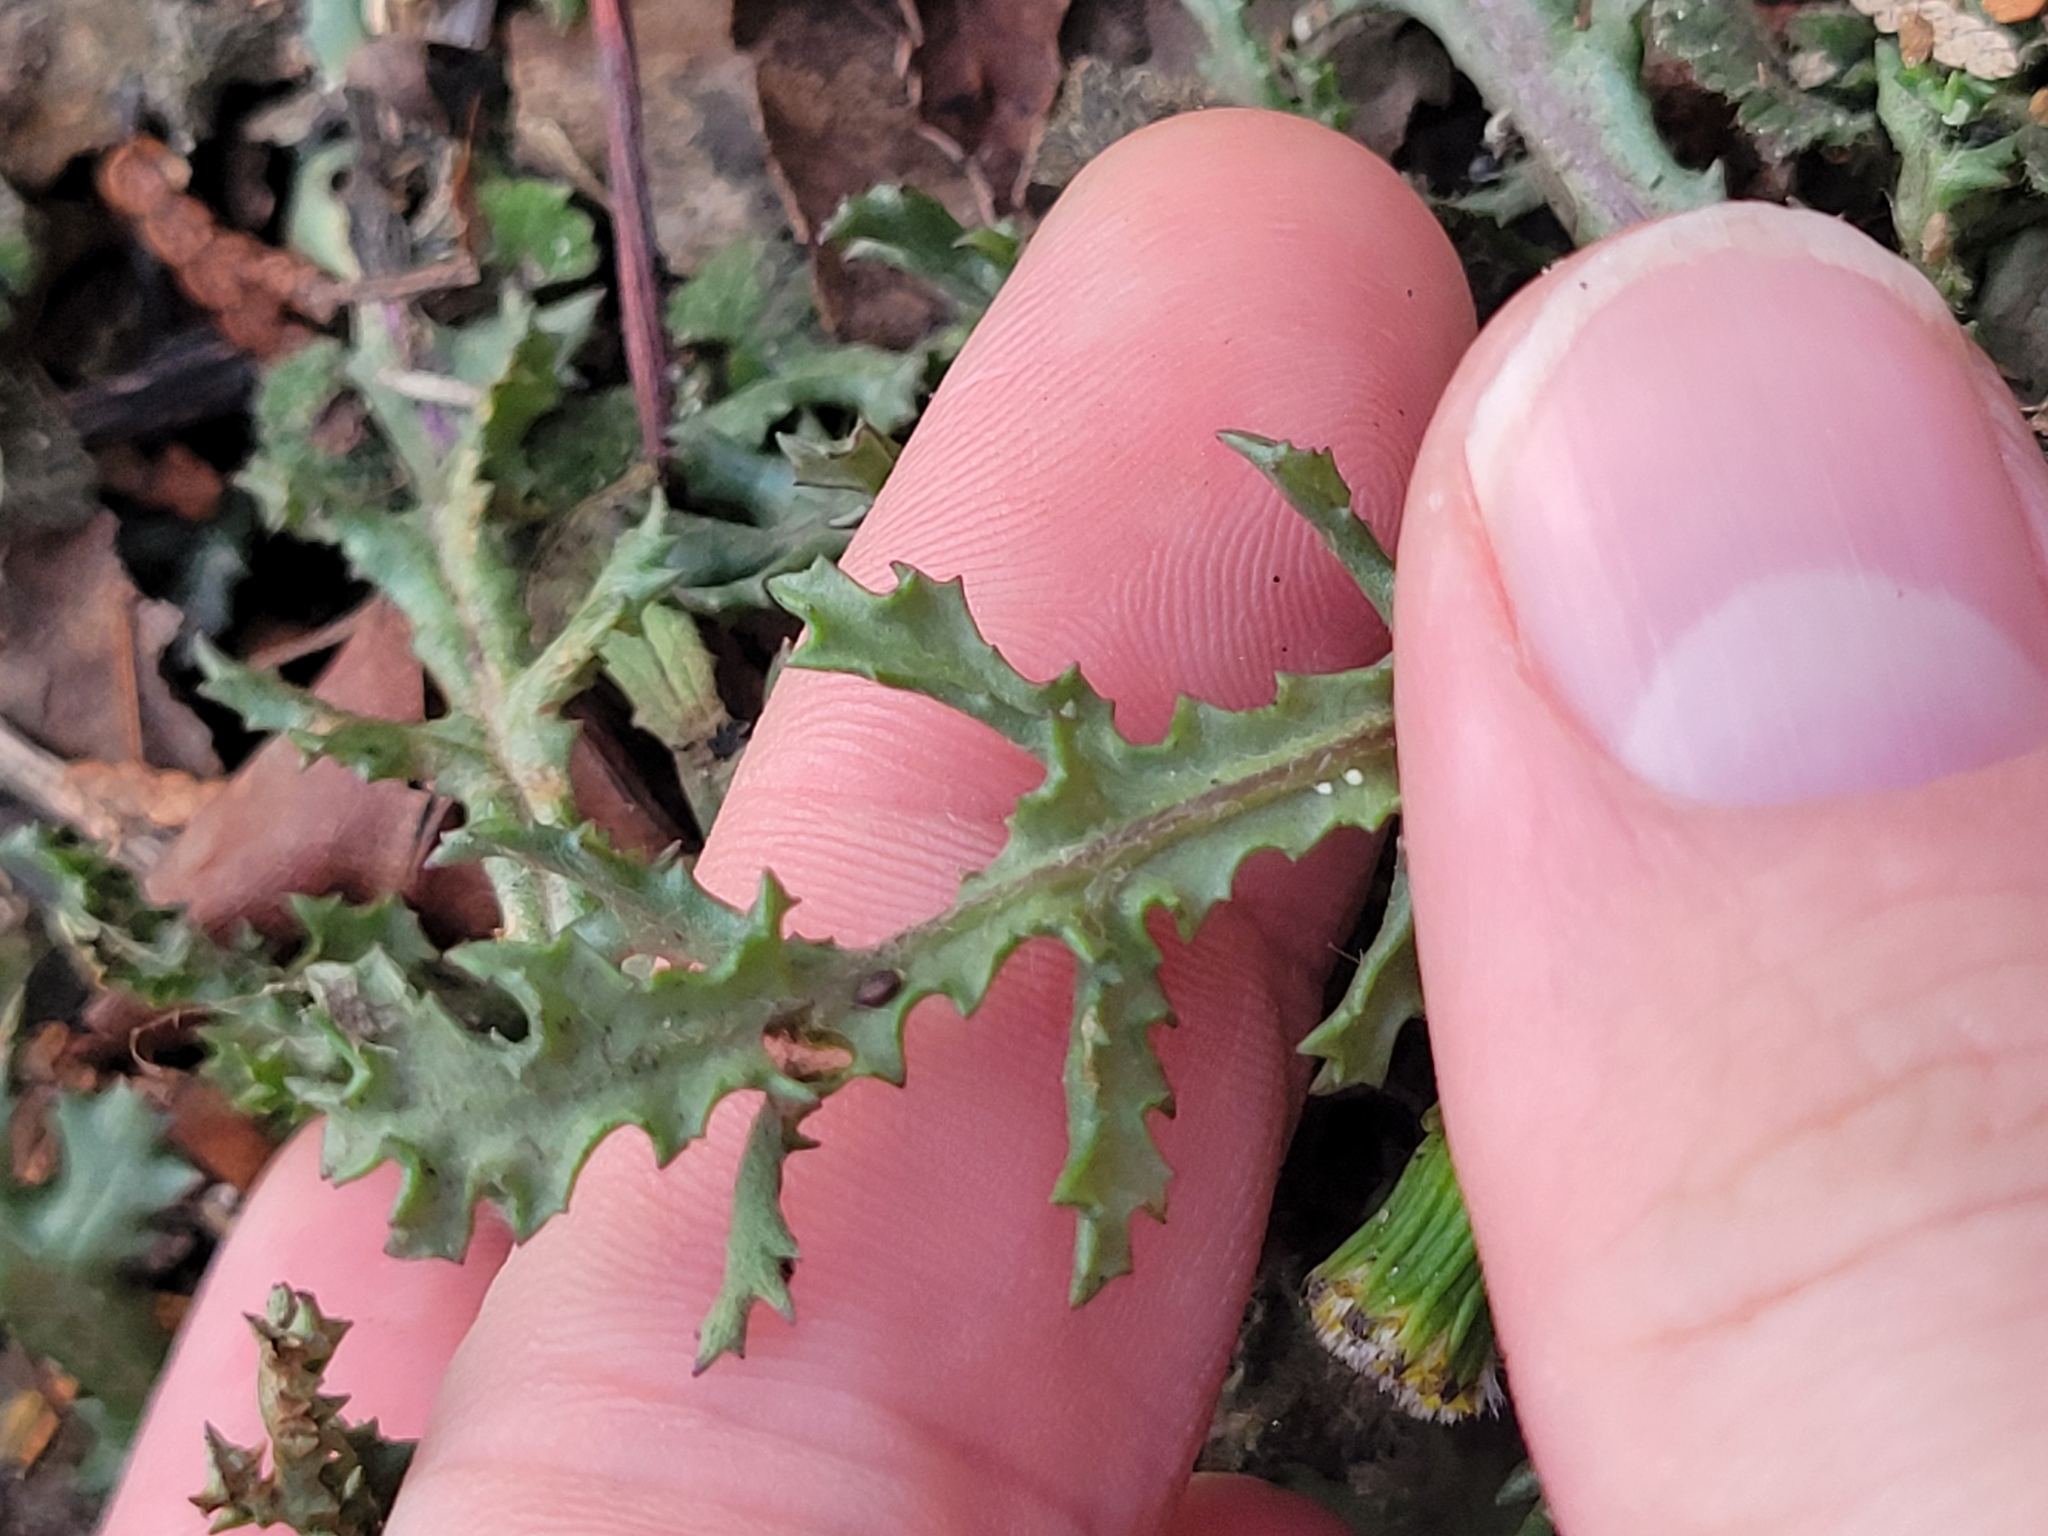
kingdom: Plantae
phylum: Tracheophyta
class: Magnoliopsida
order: Asterales
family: Asteraceae
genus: Senecio
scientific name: Senecio vulgaris
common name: Old-man-in-the-spring
